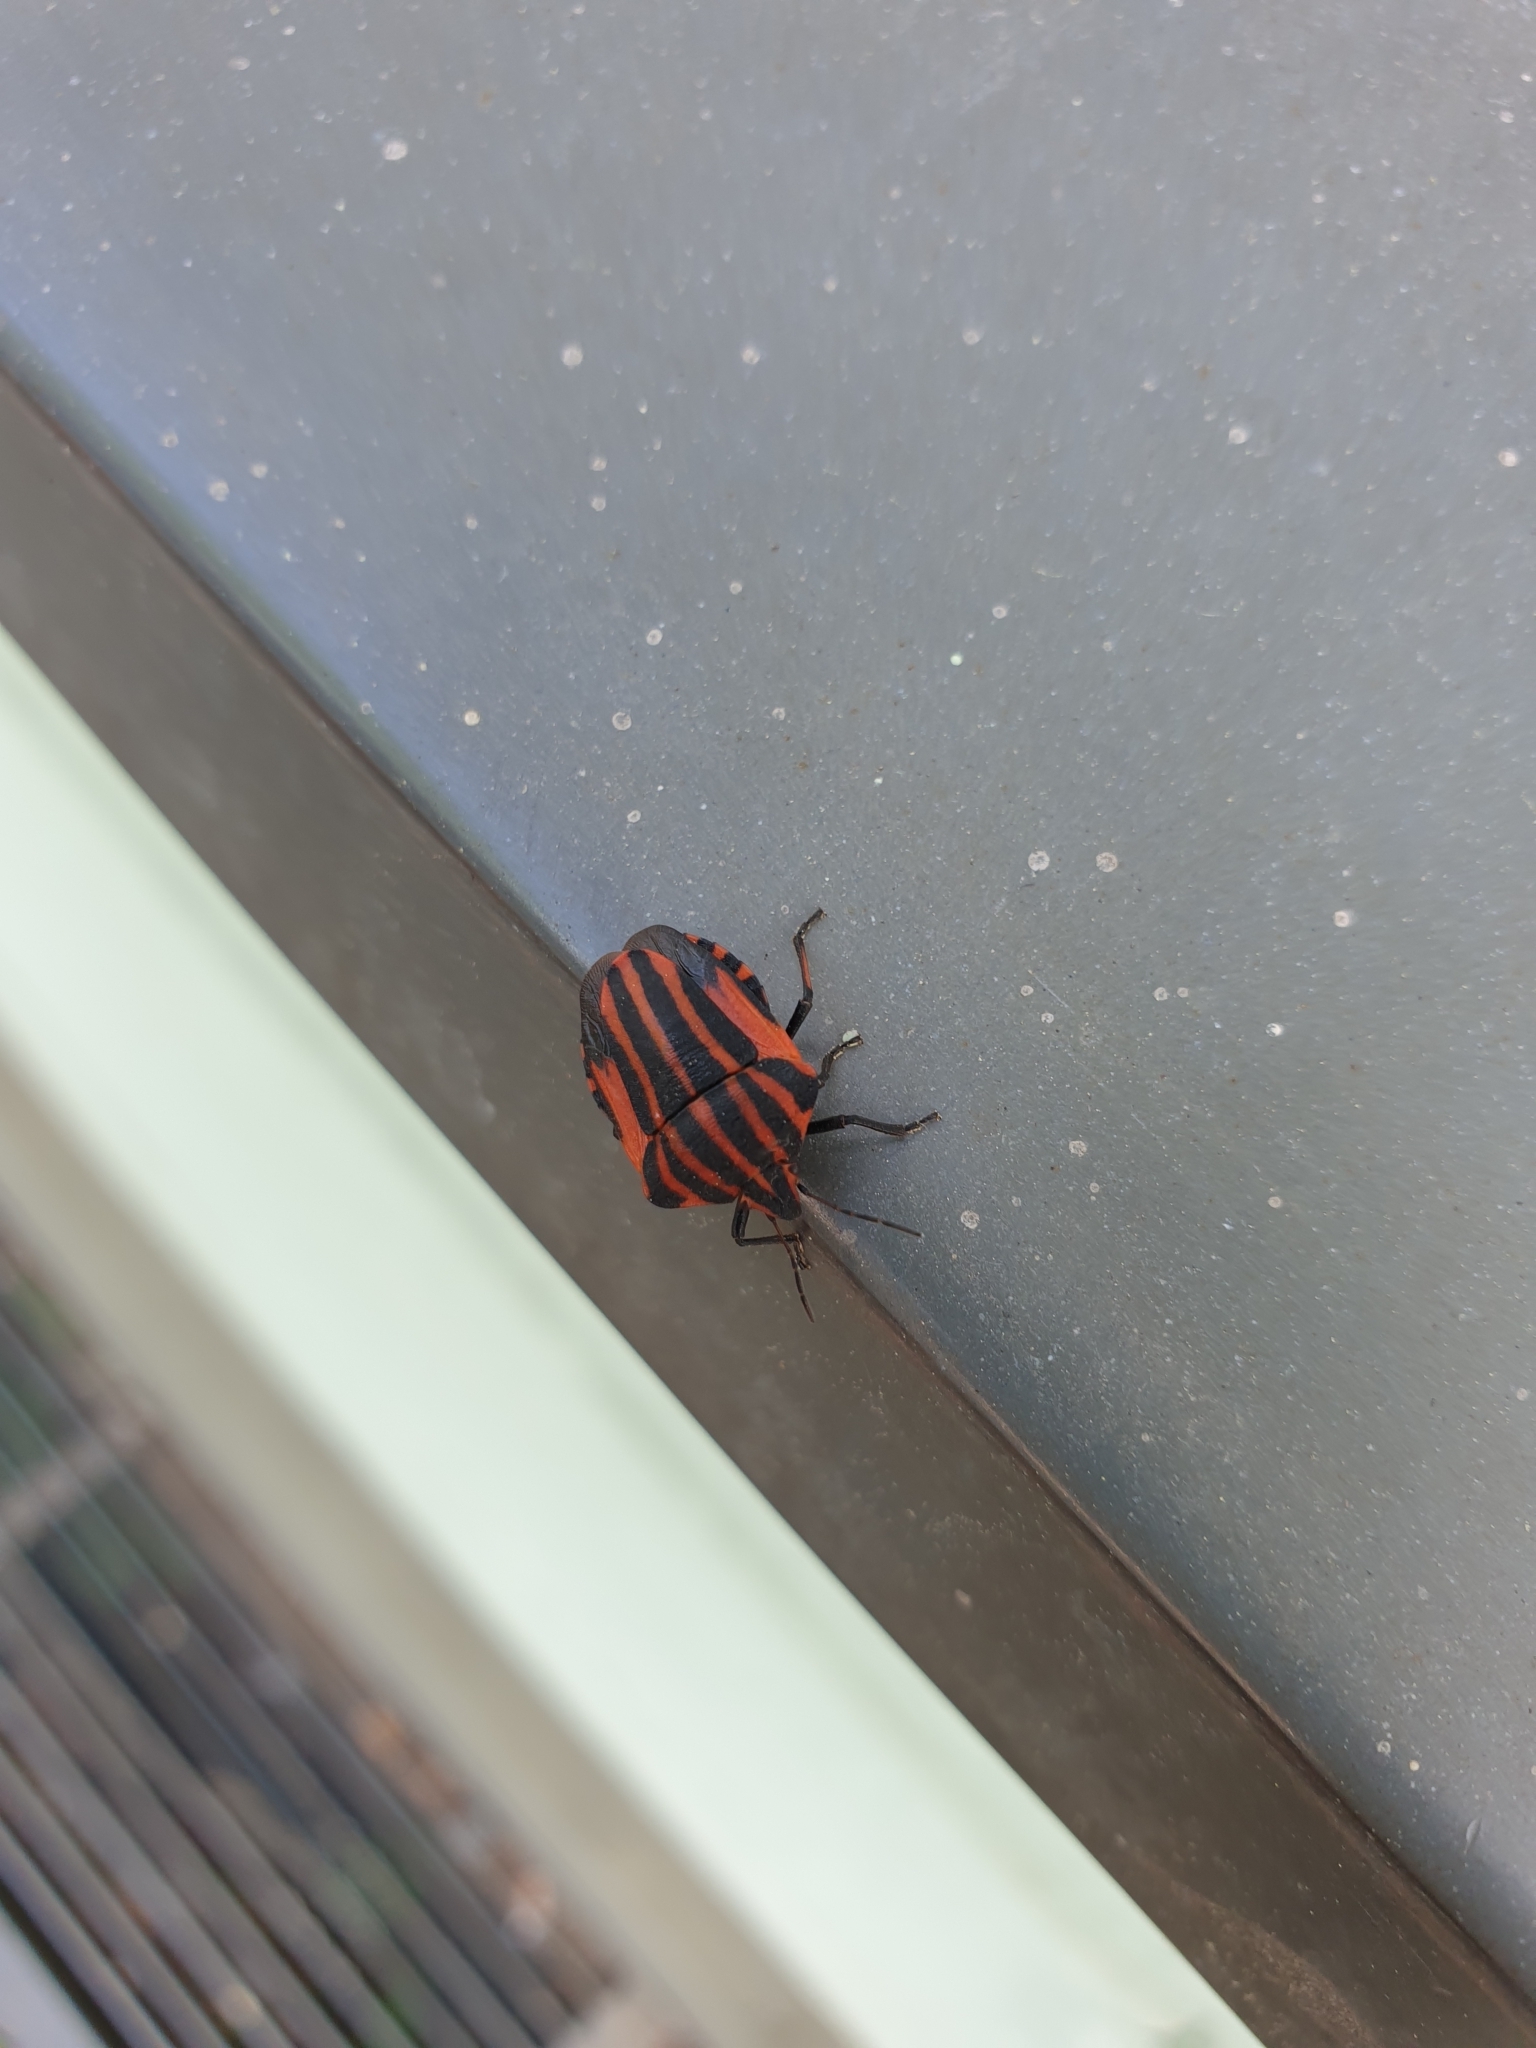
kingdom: Animalia
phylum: Arthropoda
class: Insecta
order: Hemiptera
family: Pentatomidae
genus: Graphosoma
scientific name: Graphosoma italicum
